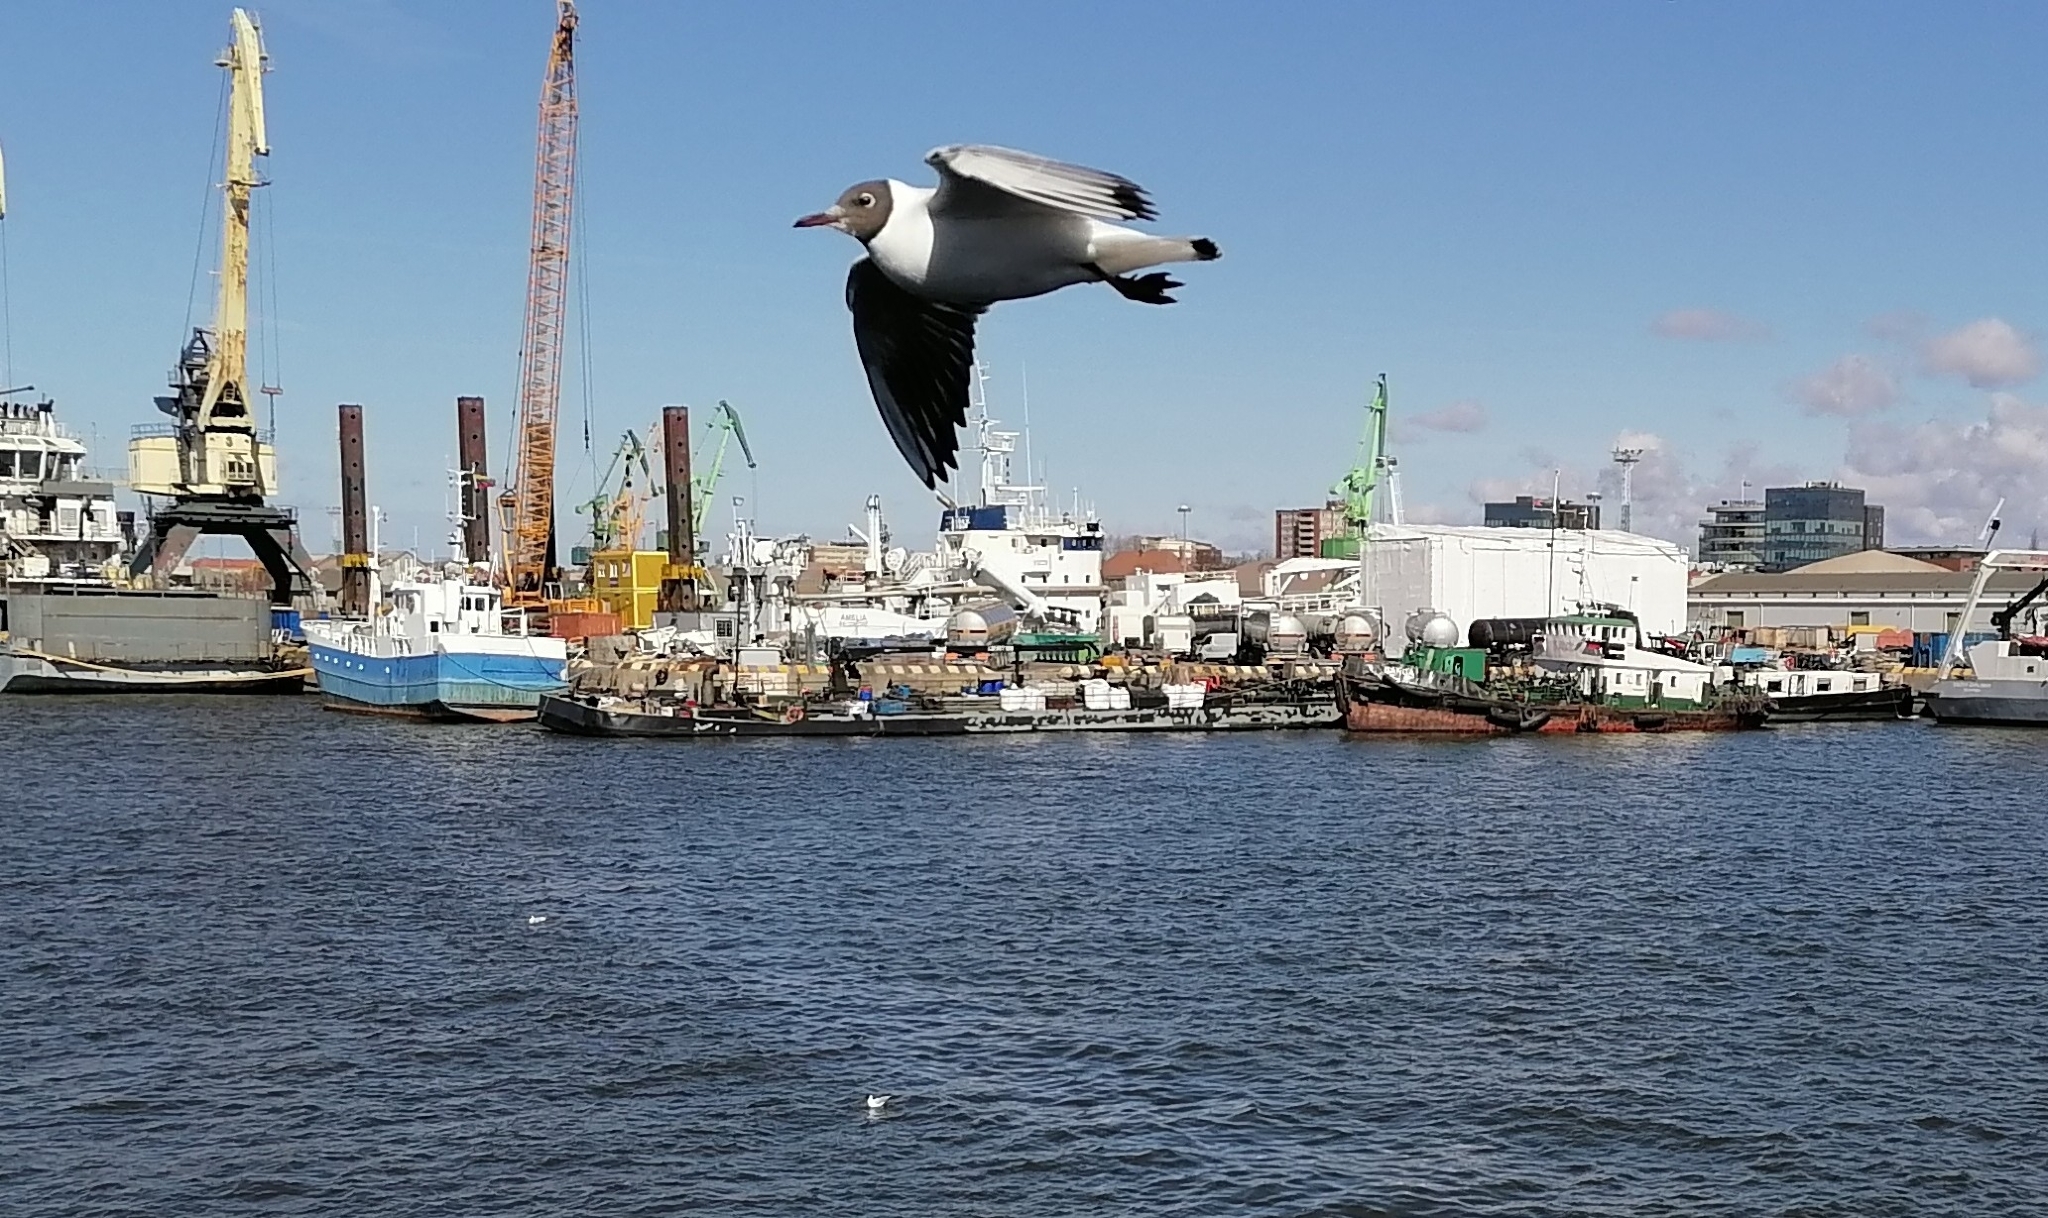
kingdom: Animalia
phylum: Chordata
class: Aves
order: Charadriiformes
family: Laridae
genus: Chroicocephalus
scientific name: Chroicocephalus ridibundus
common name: Black-headed gull
